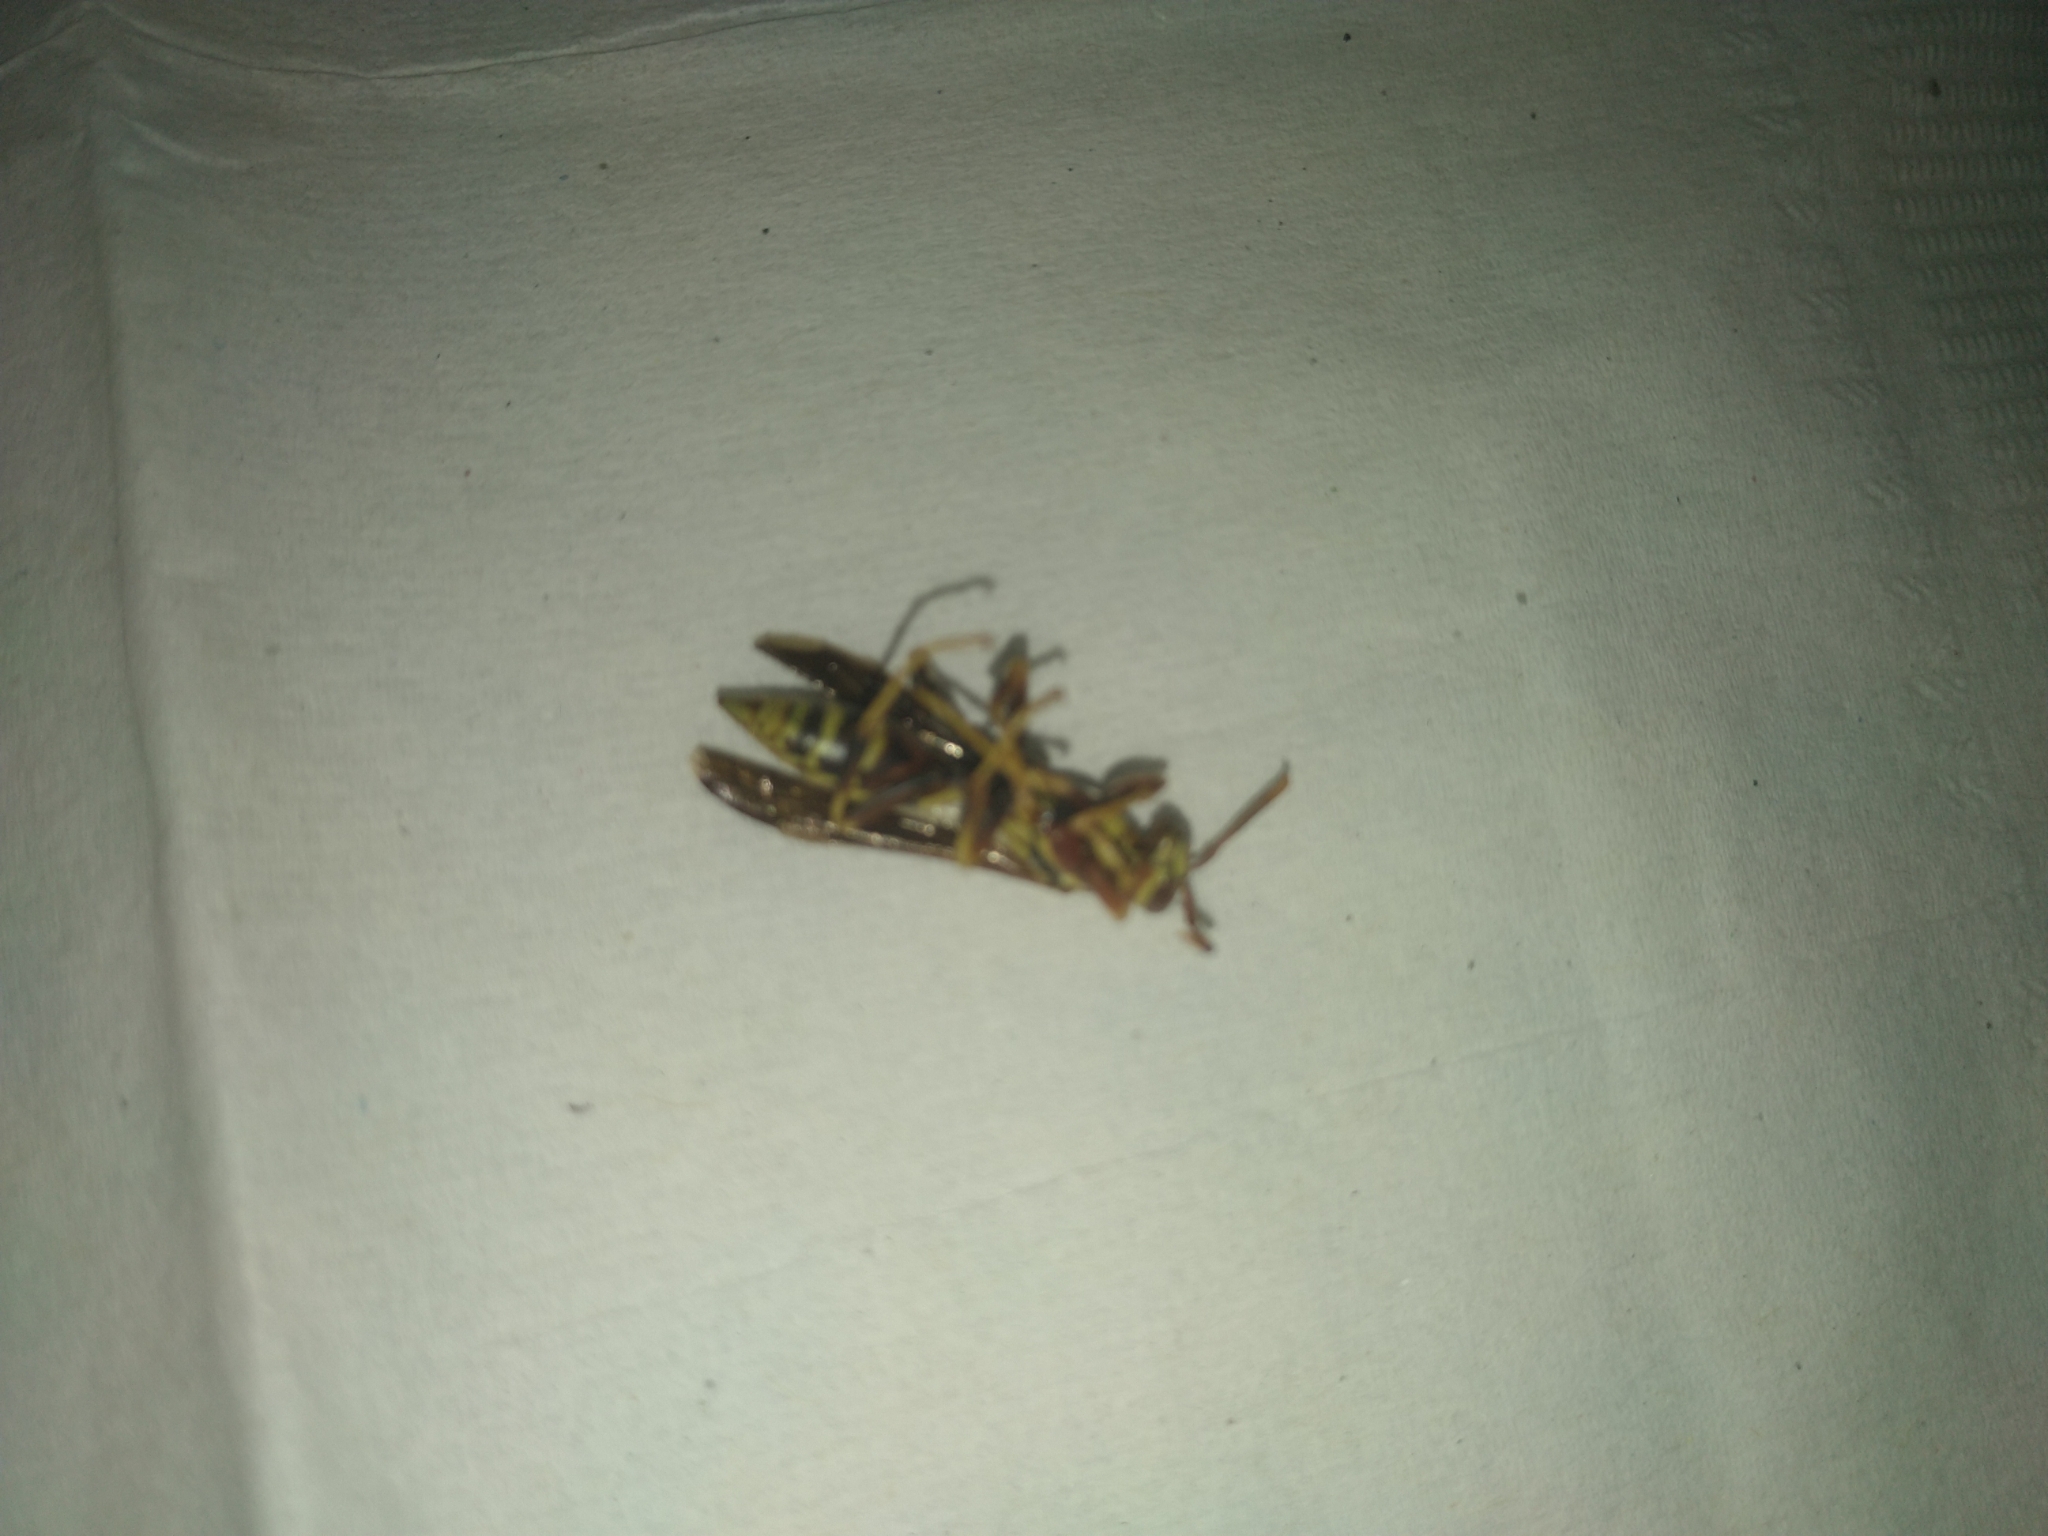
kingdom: Animalia
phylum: Arthropoda
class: Insecta
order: Hymenoptera
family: Eumenidae
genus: Polistes
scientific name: Polistes exclamans
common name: Paper wasp
